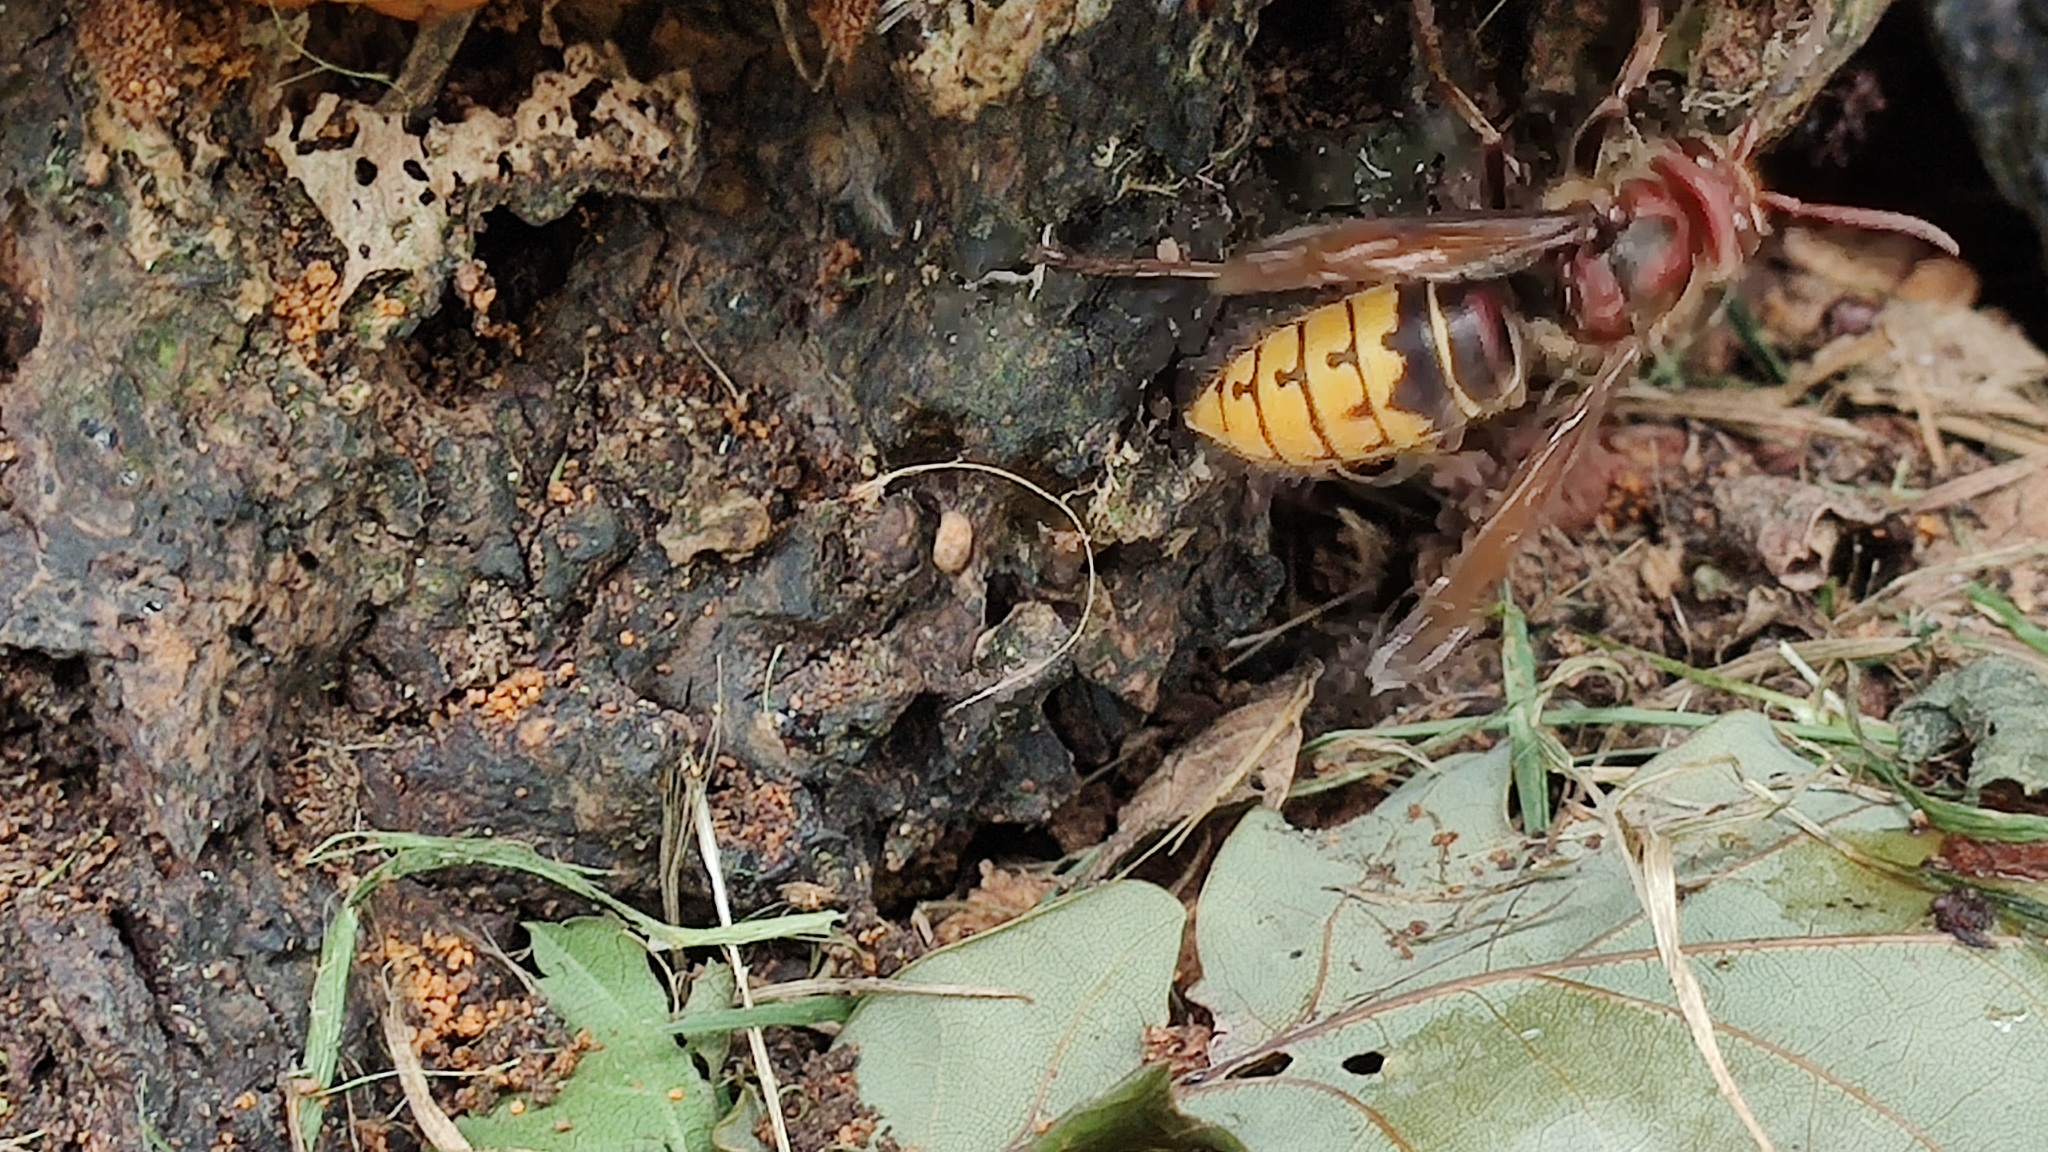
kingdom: Animalia
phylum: Arthropoda
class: Insecta
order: Hymenoptera
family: Vespidae
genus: Vespa
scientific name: Vespa crabro
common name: Hornet
